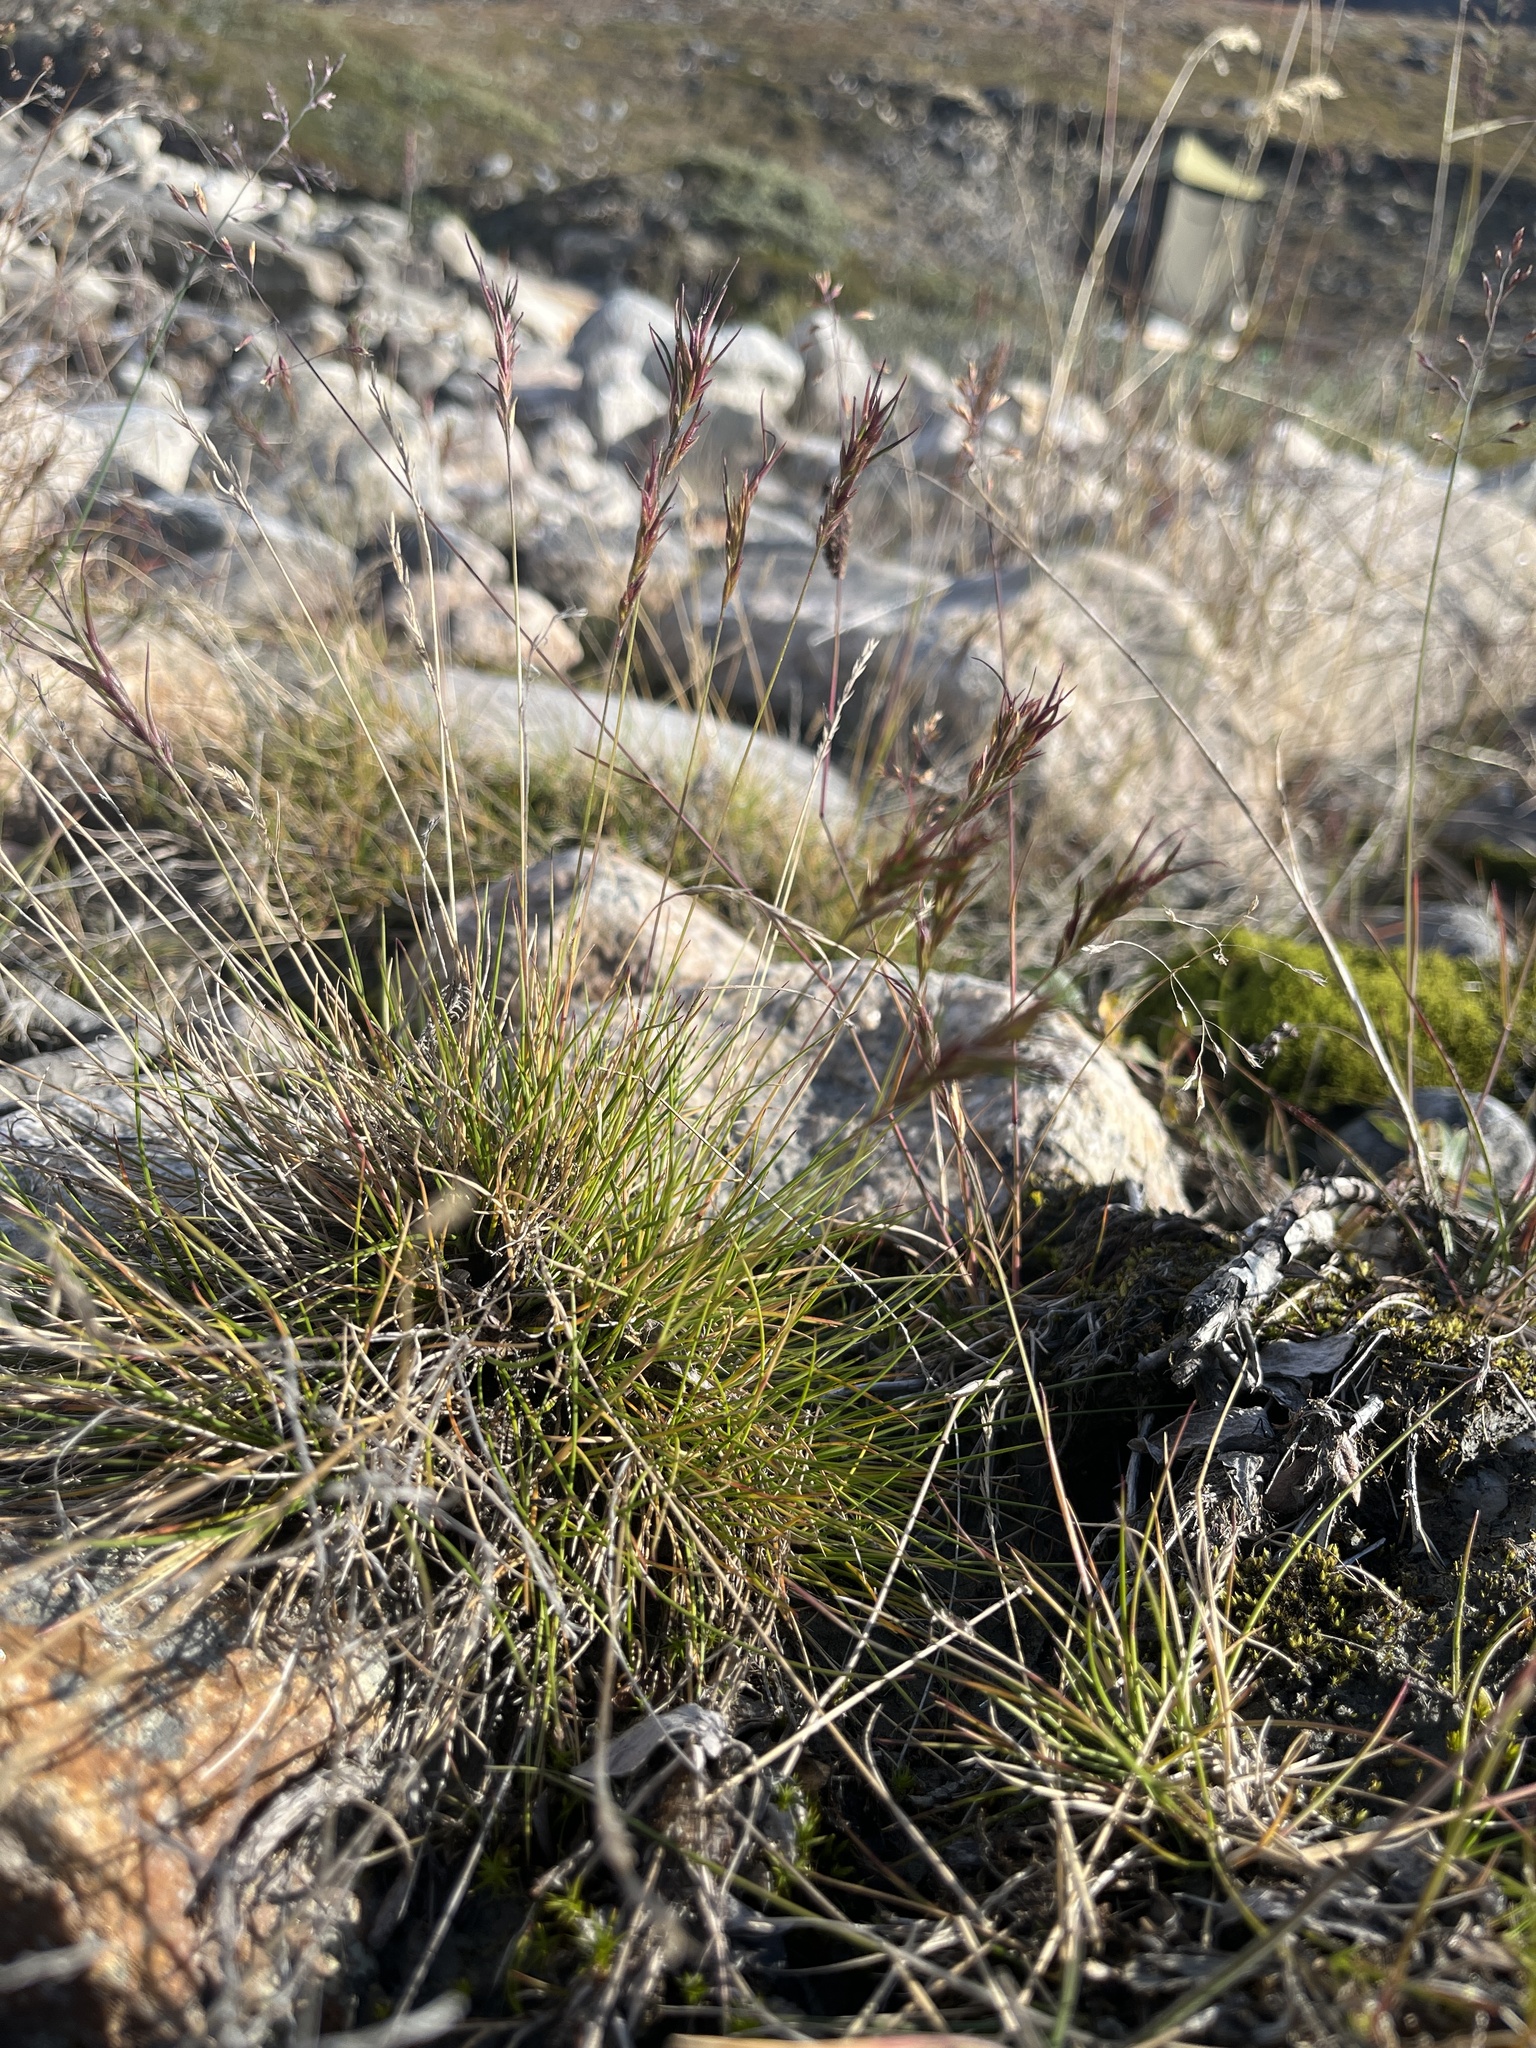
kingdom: Plantae
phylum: Tracheophyta
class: Liliopsida
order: Poales
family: Poaceae
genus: Festuca
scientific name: Festuca vivipara
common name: Viviparous sheep's-fescue
